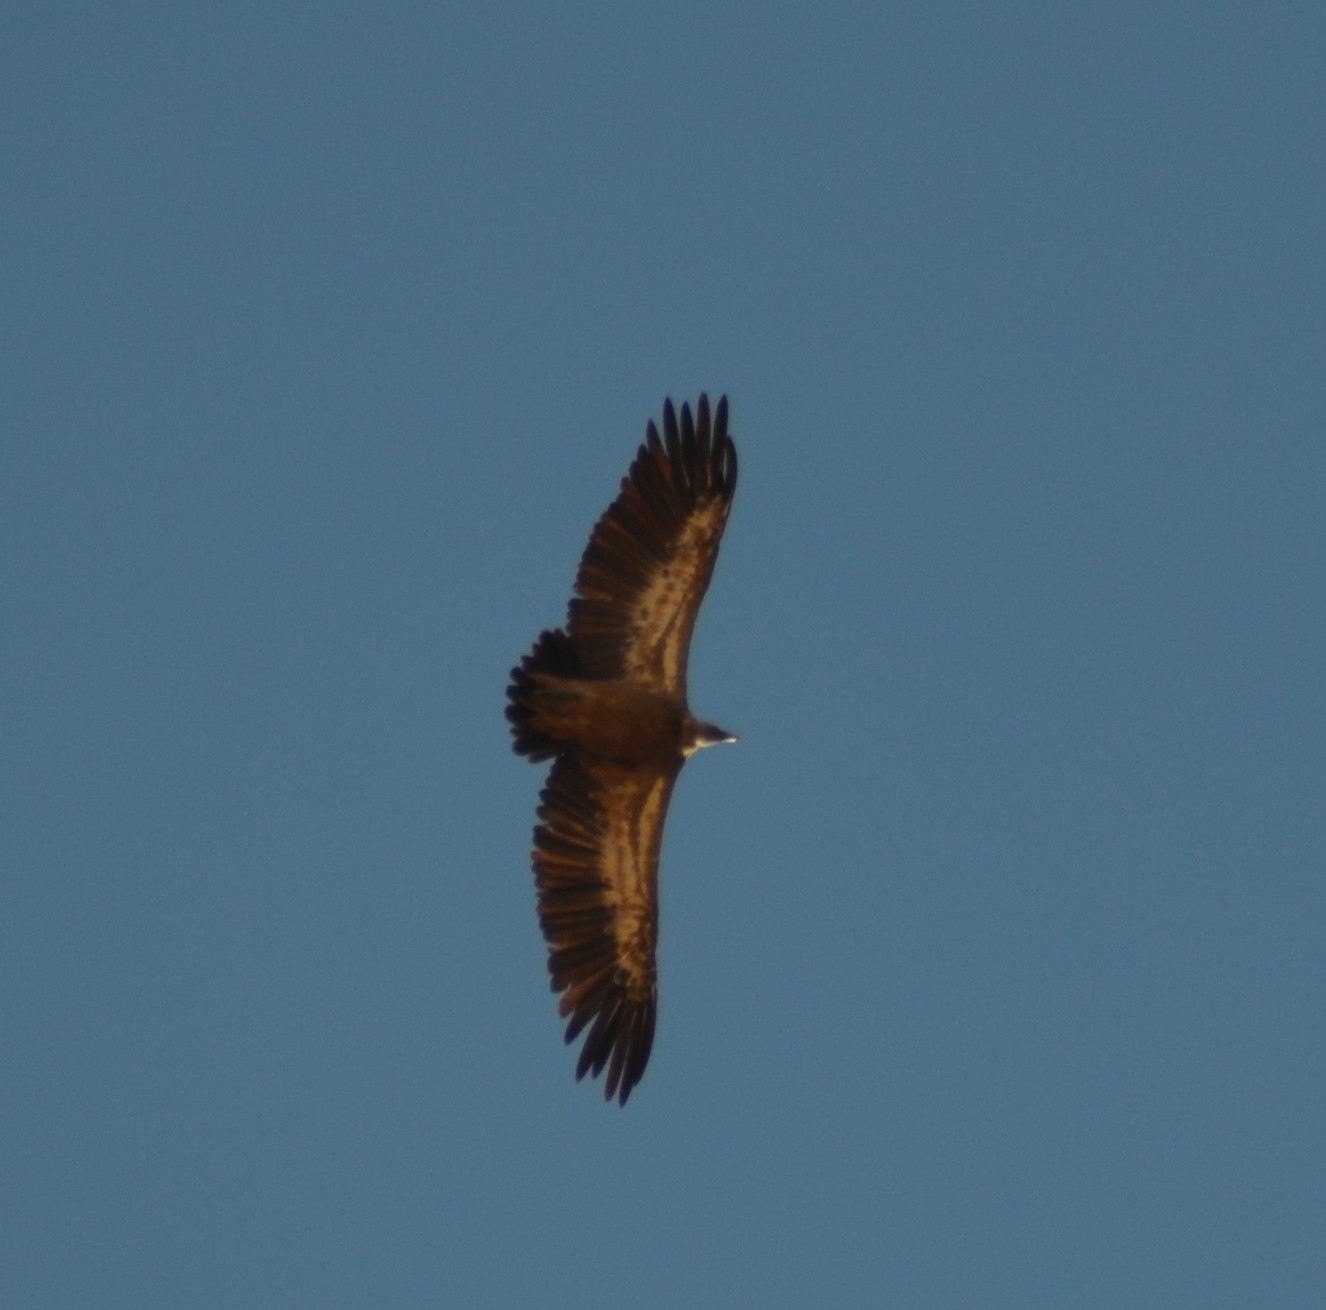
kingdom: Animalia
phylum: Chordata
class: Aves
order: Accipitriformes
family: Accipitridae
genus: Gyps
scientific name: Gyps fulvus
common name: Griffon vulture
